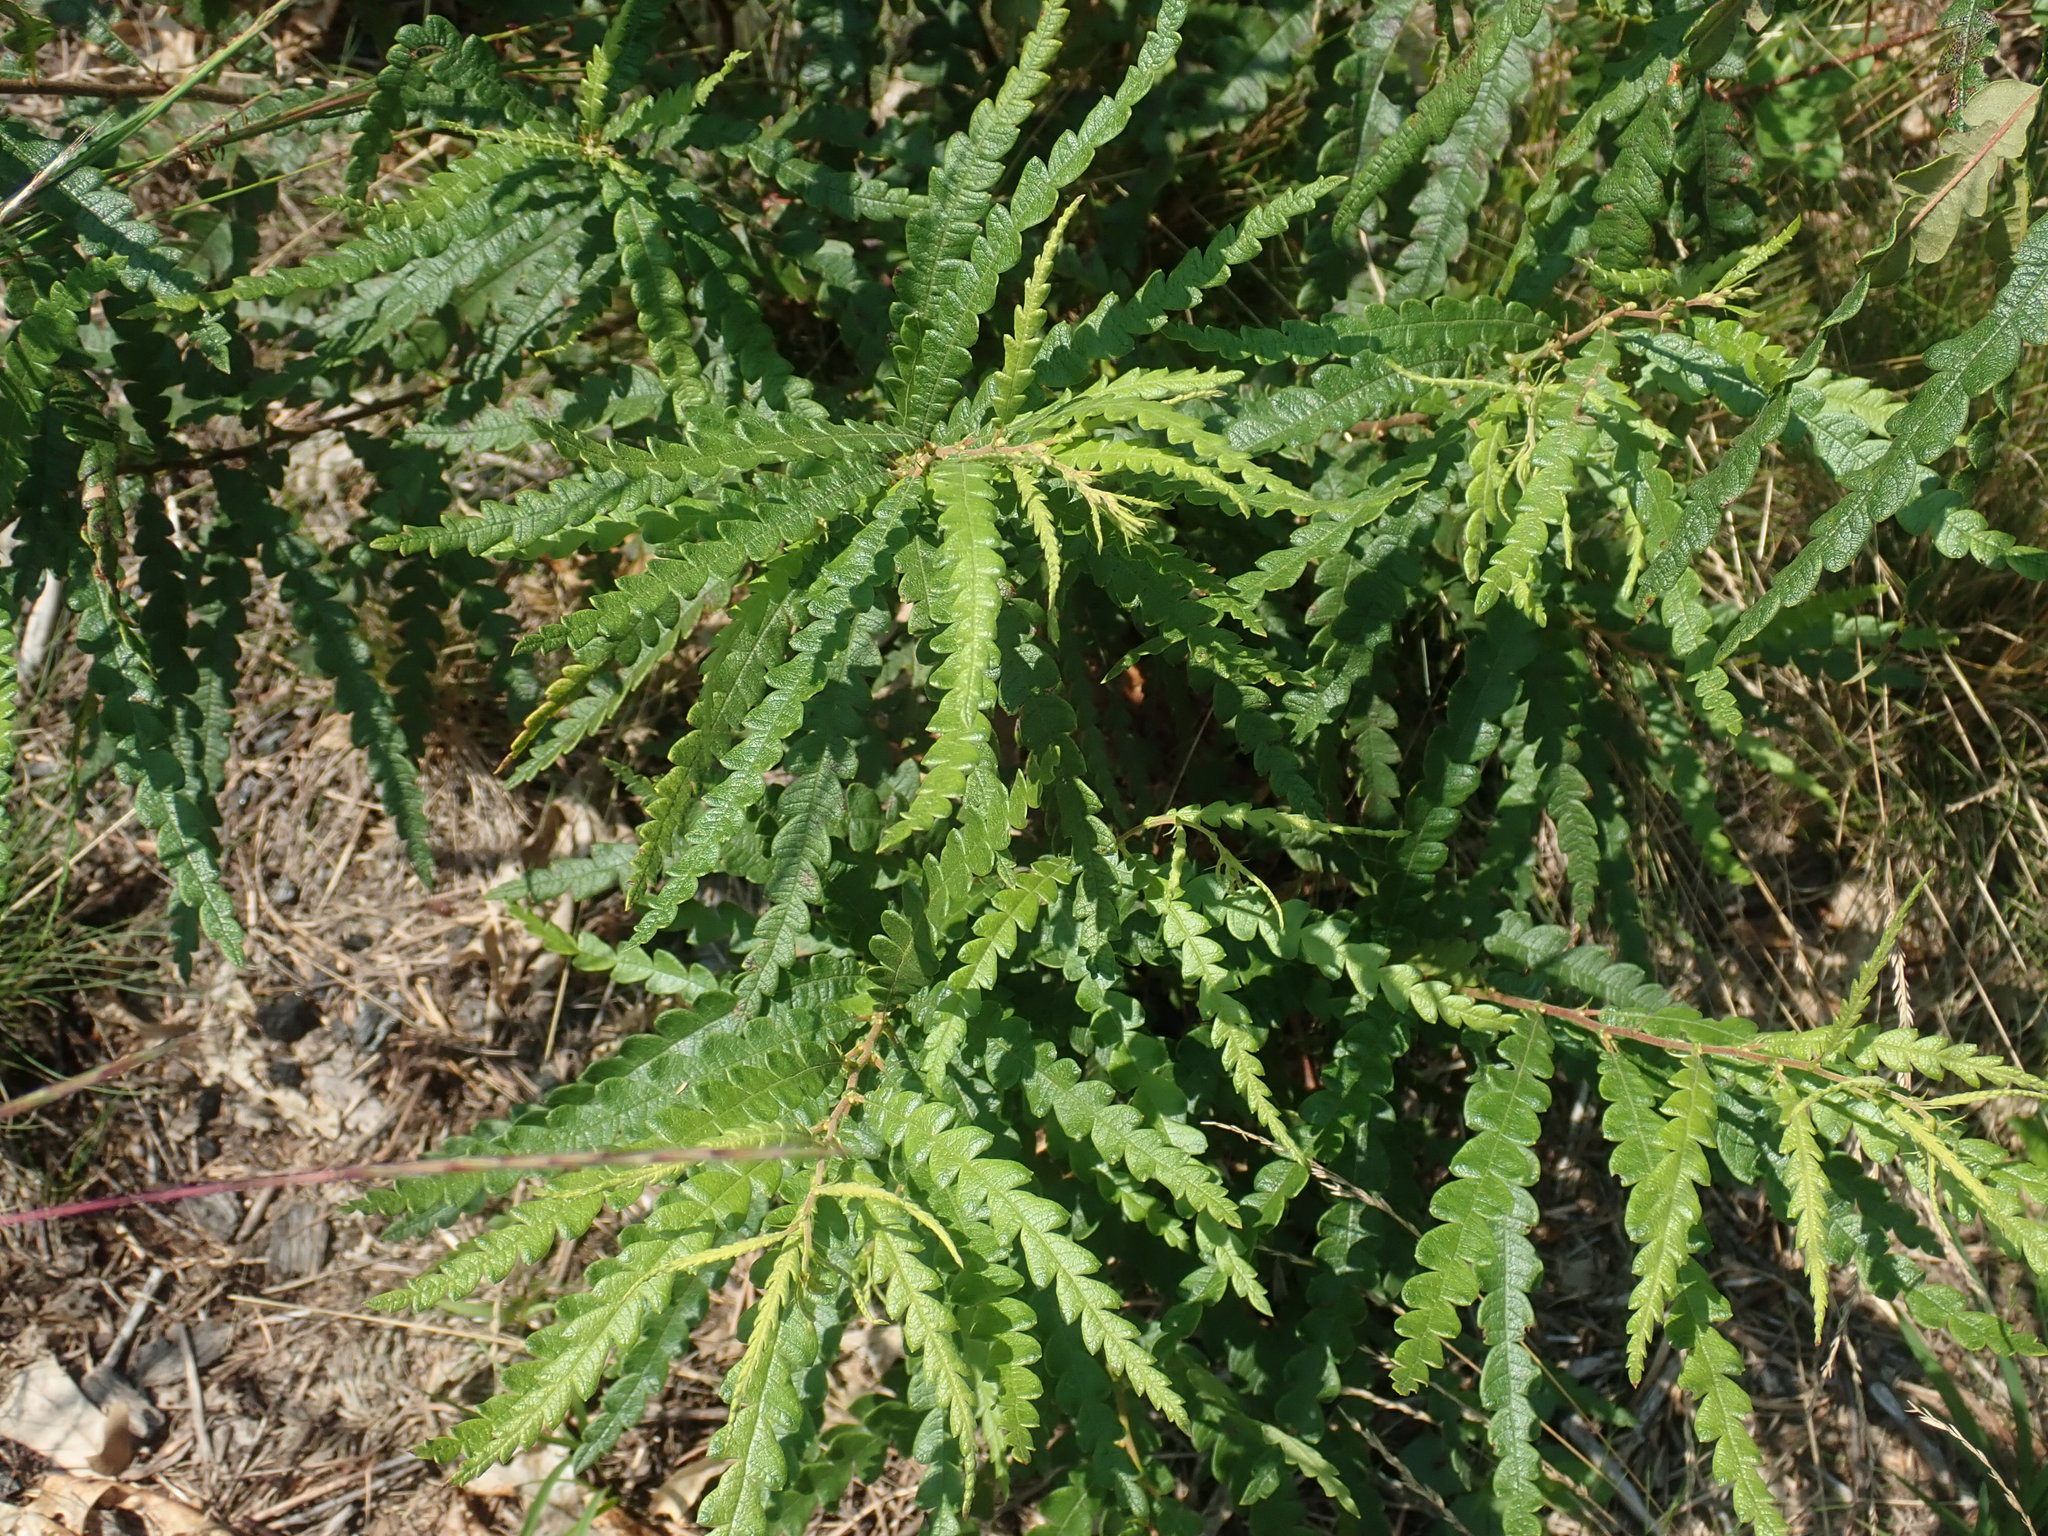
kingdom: Plantae
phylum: Tracheophyta
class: Magnoliopsida
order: Fagales
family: Myricaceae
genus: Comptonia
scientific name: Comptonia peregrina
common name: Sweet-fern
